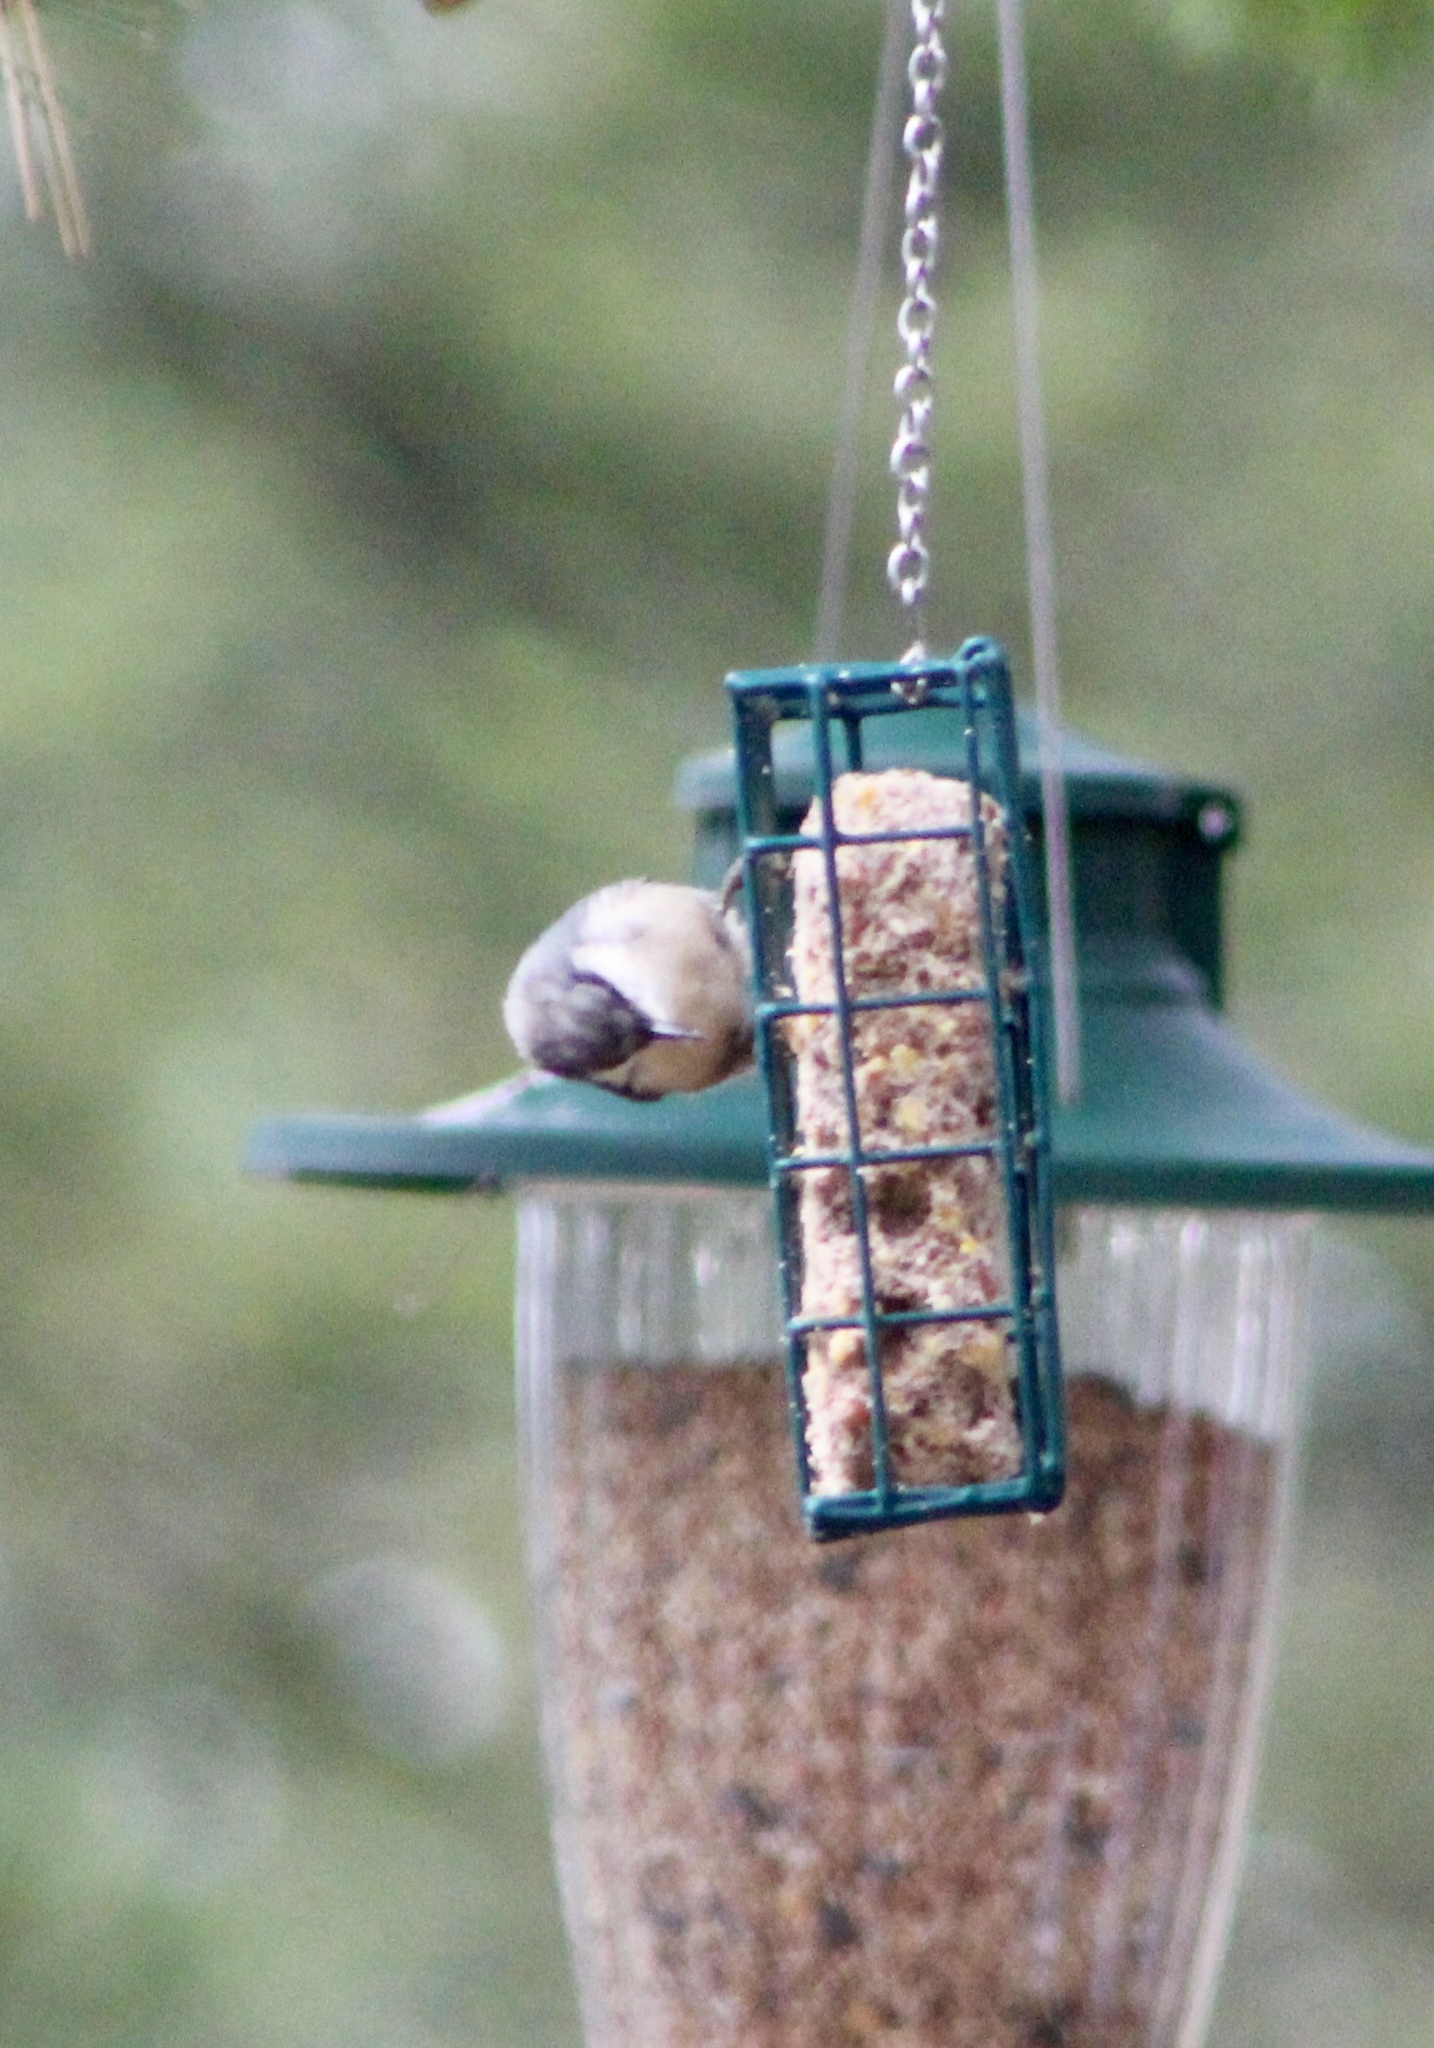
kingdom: Animalia
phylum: Chordata
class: Aves
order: Passeriformes
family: Sittidae
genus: Sitta
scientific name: Sitta pygmaea
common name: Pygmy nuthatch
